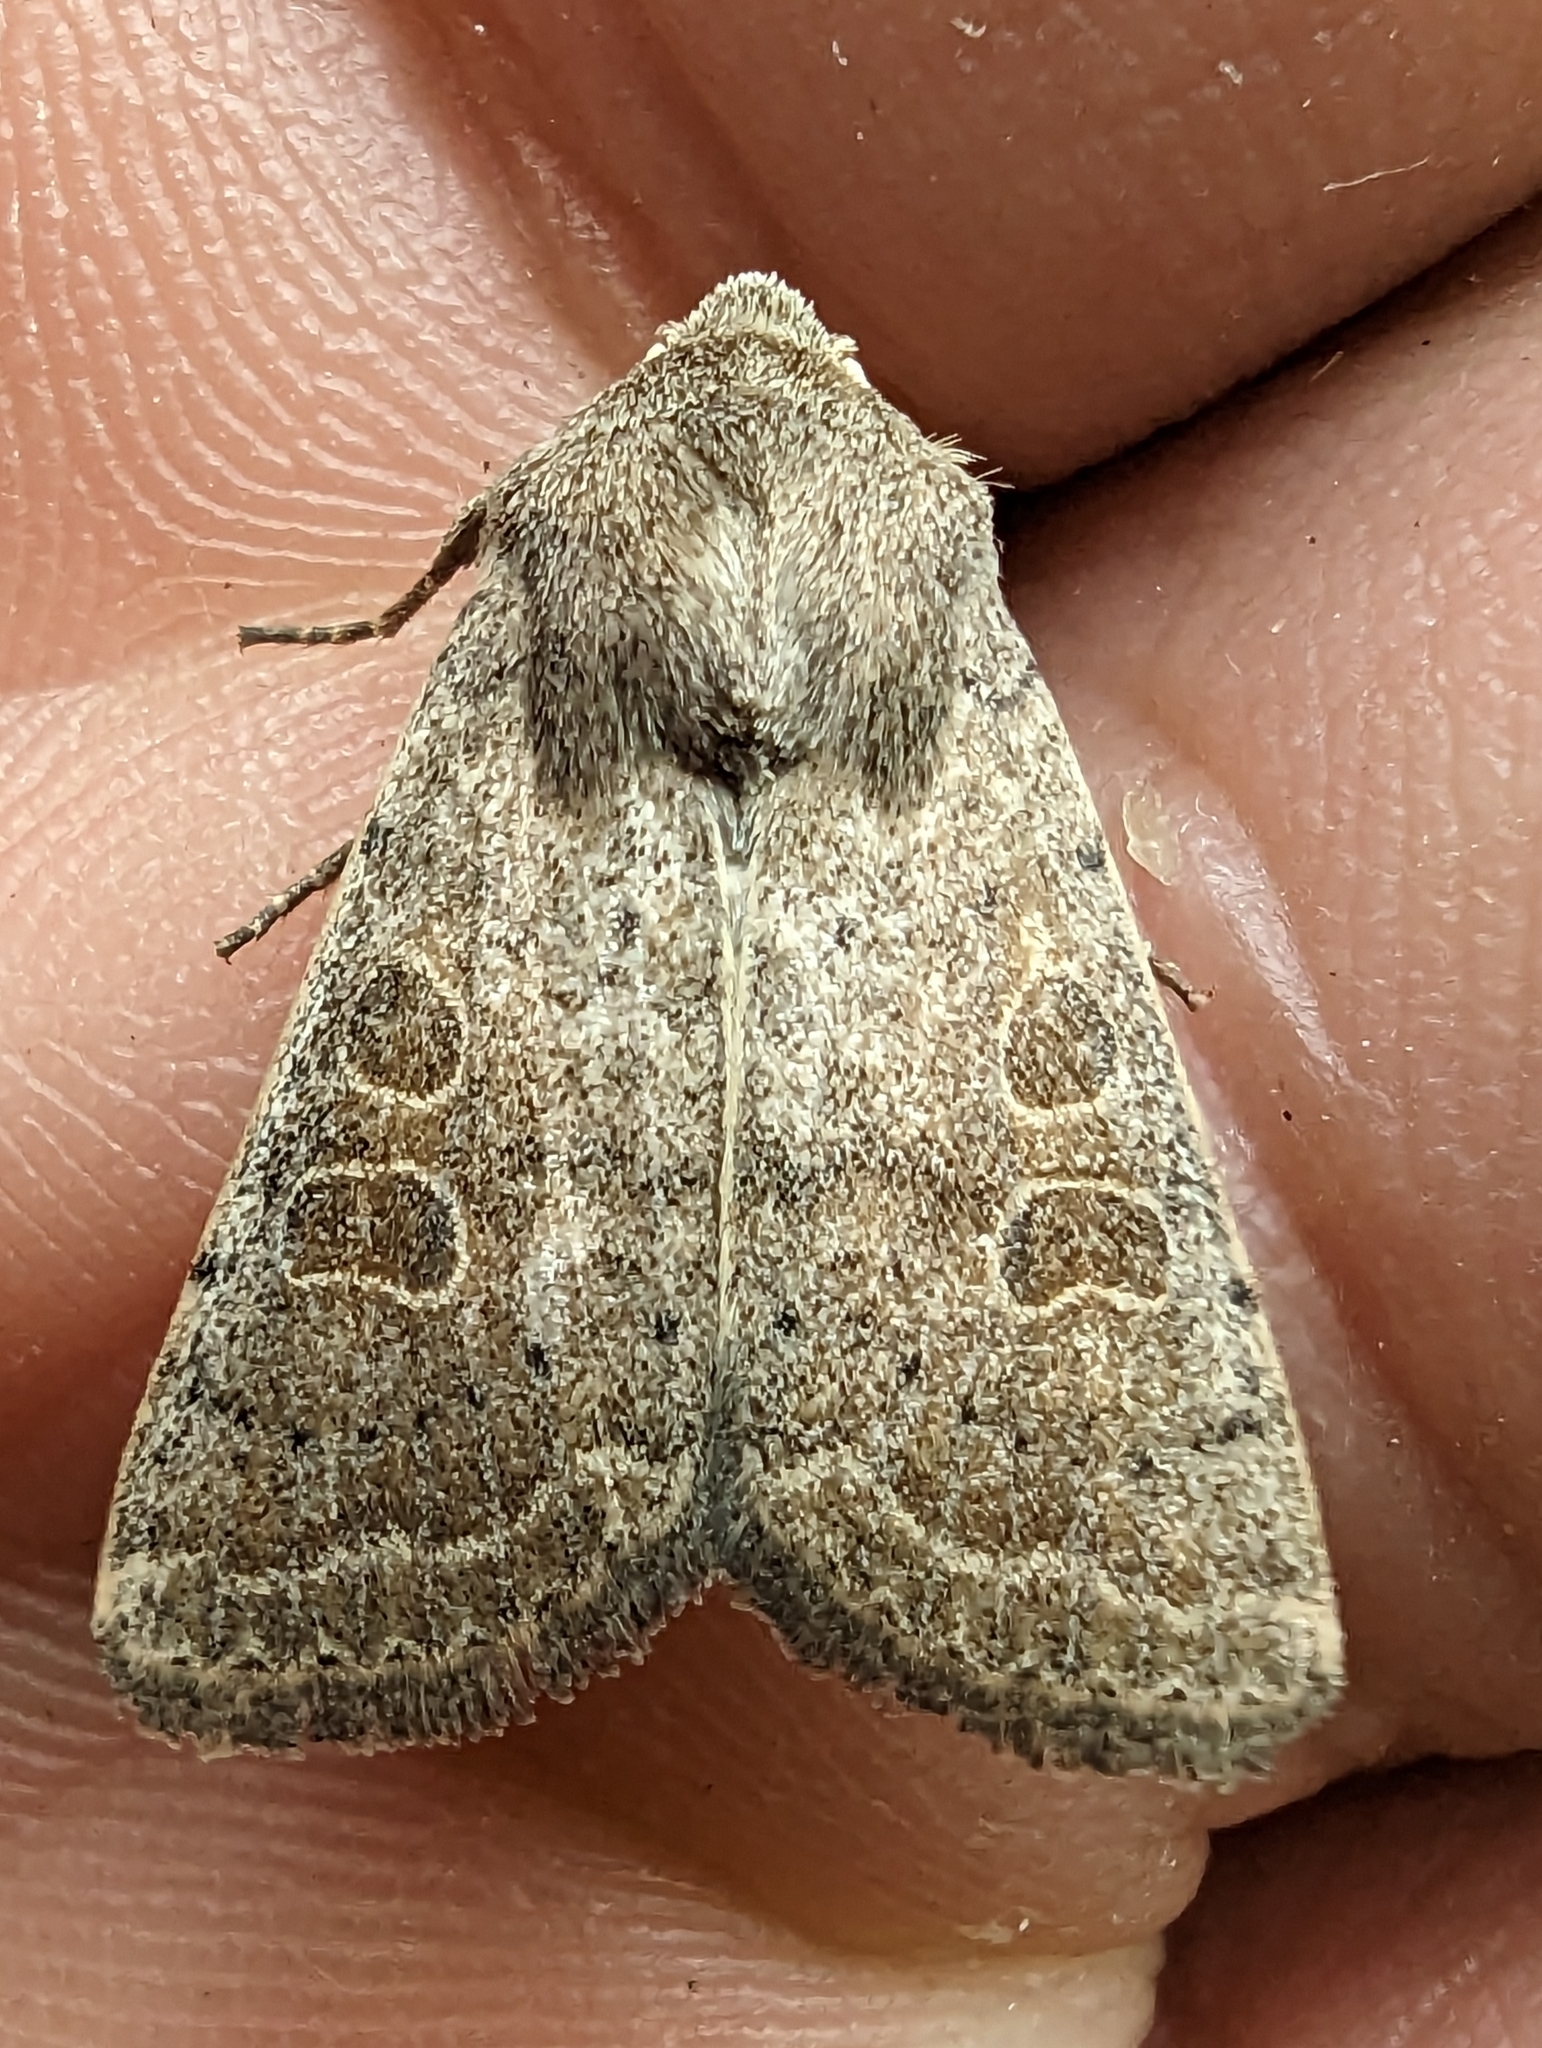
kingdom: Animalia
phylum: Arthropoda
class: Insecta
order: Lepidoptera
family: Noctuidae
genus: Hoplodrina
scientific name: Hoplodrina ambigua
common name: Vine's rustic
